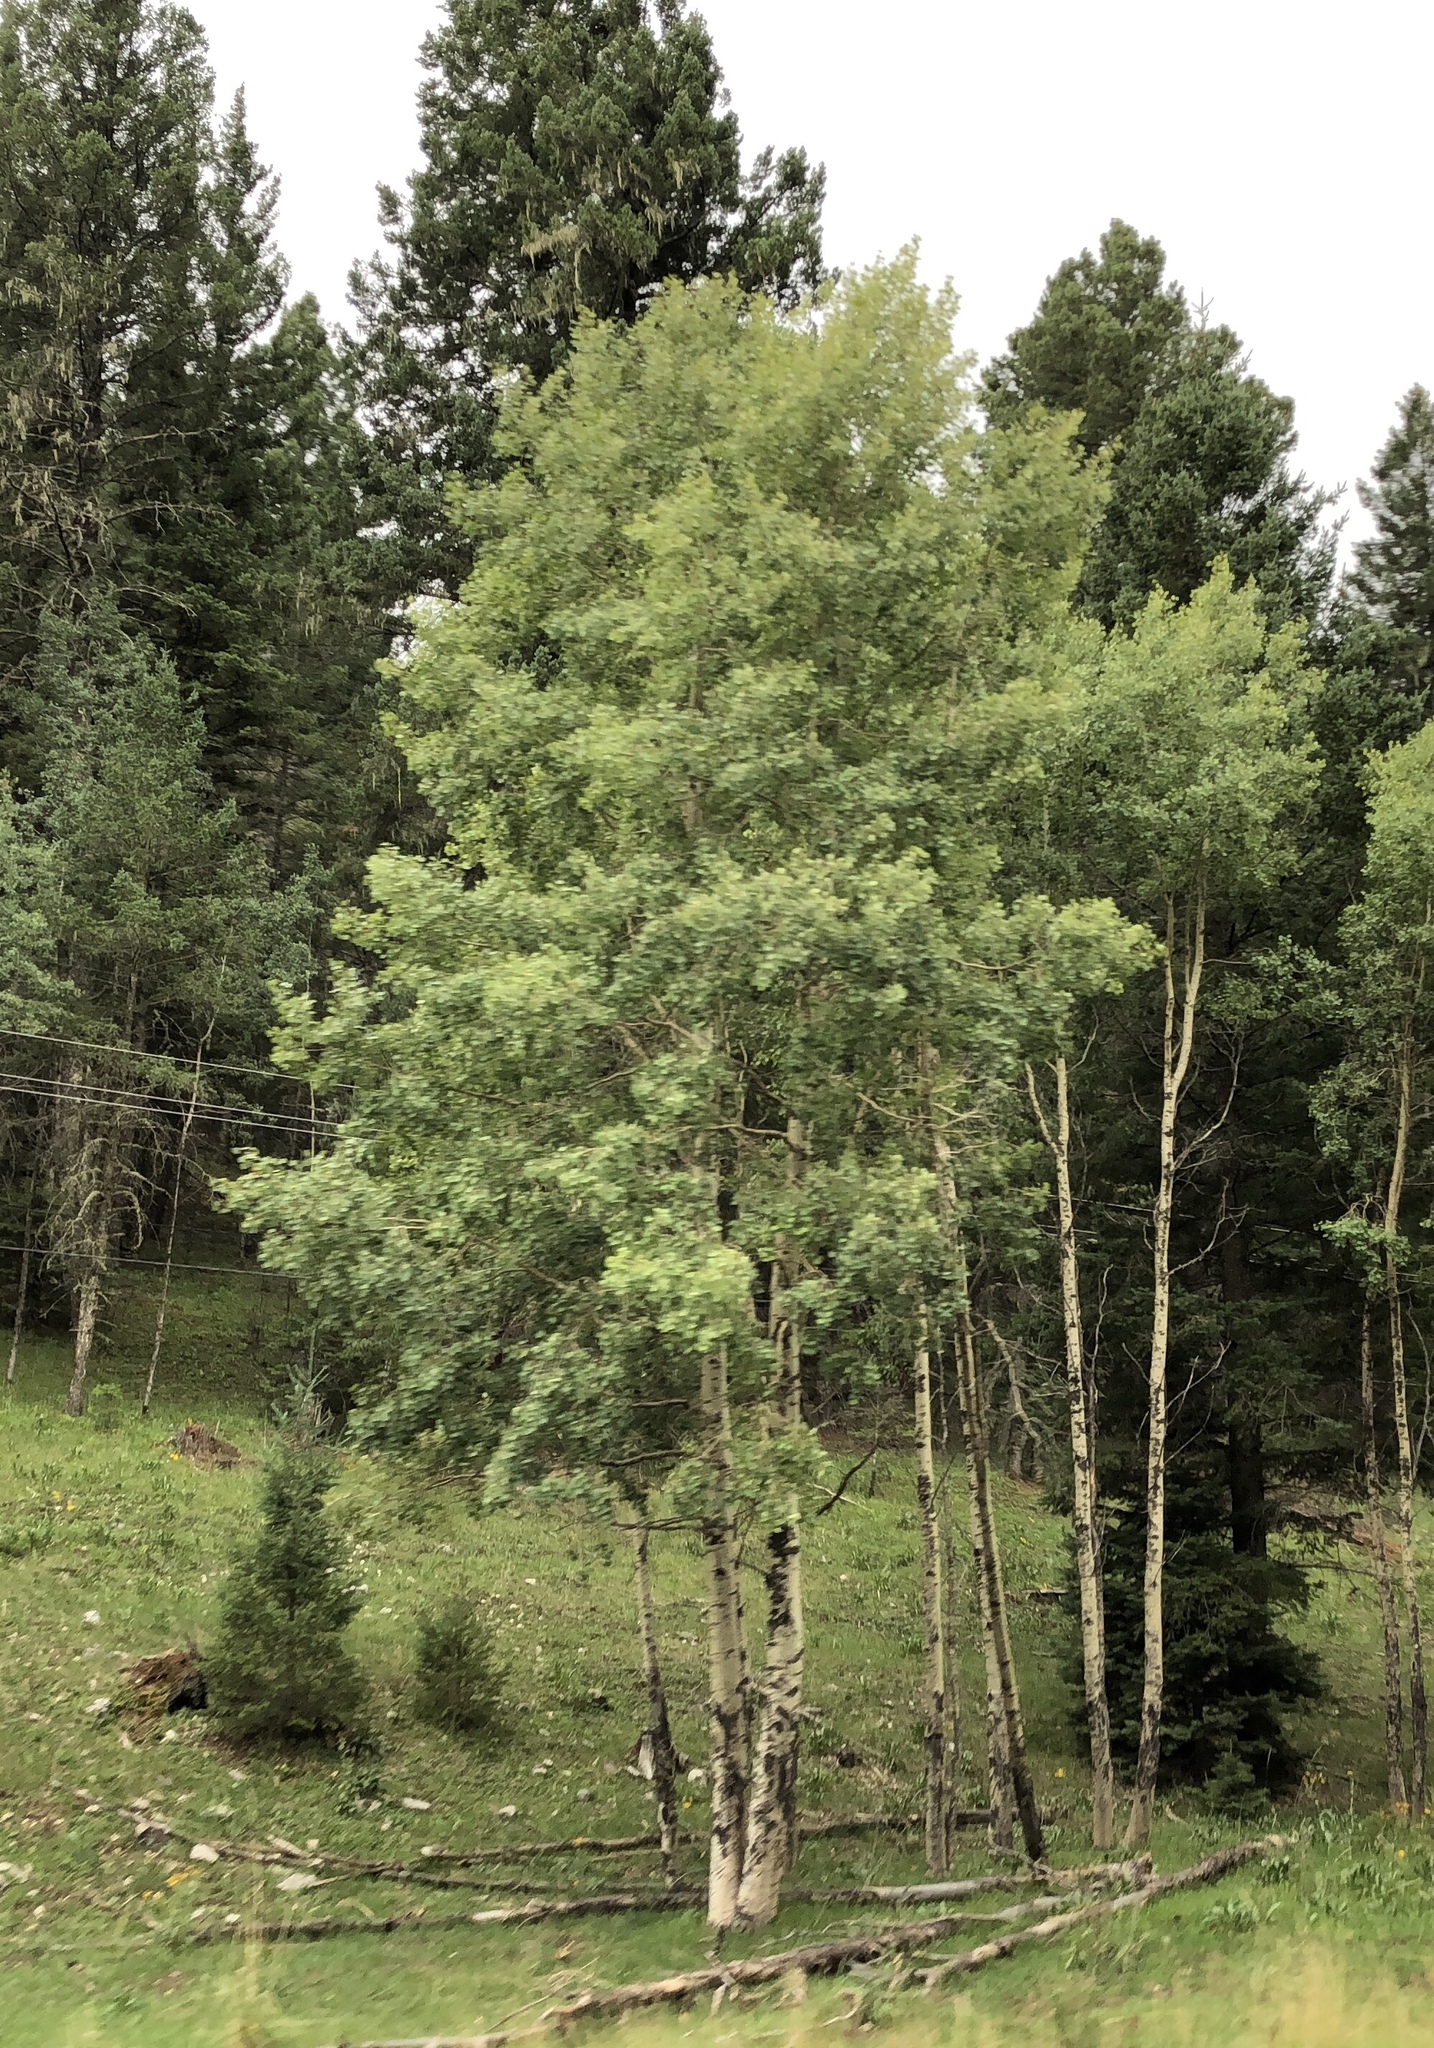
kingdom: Plantae
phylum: Tracheophyta
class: Magnoliopsida
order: Malpighiales
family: Salicaceae
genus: Populus
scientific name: Populus tremuloides
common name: Quaking aspen
